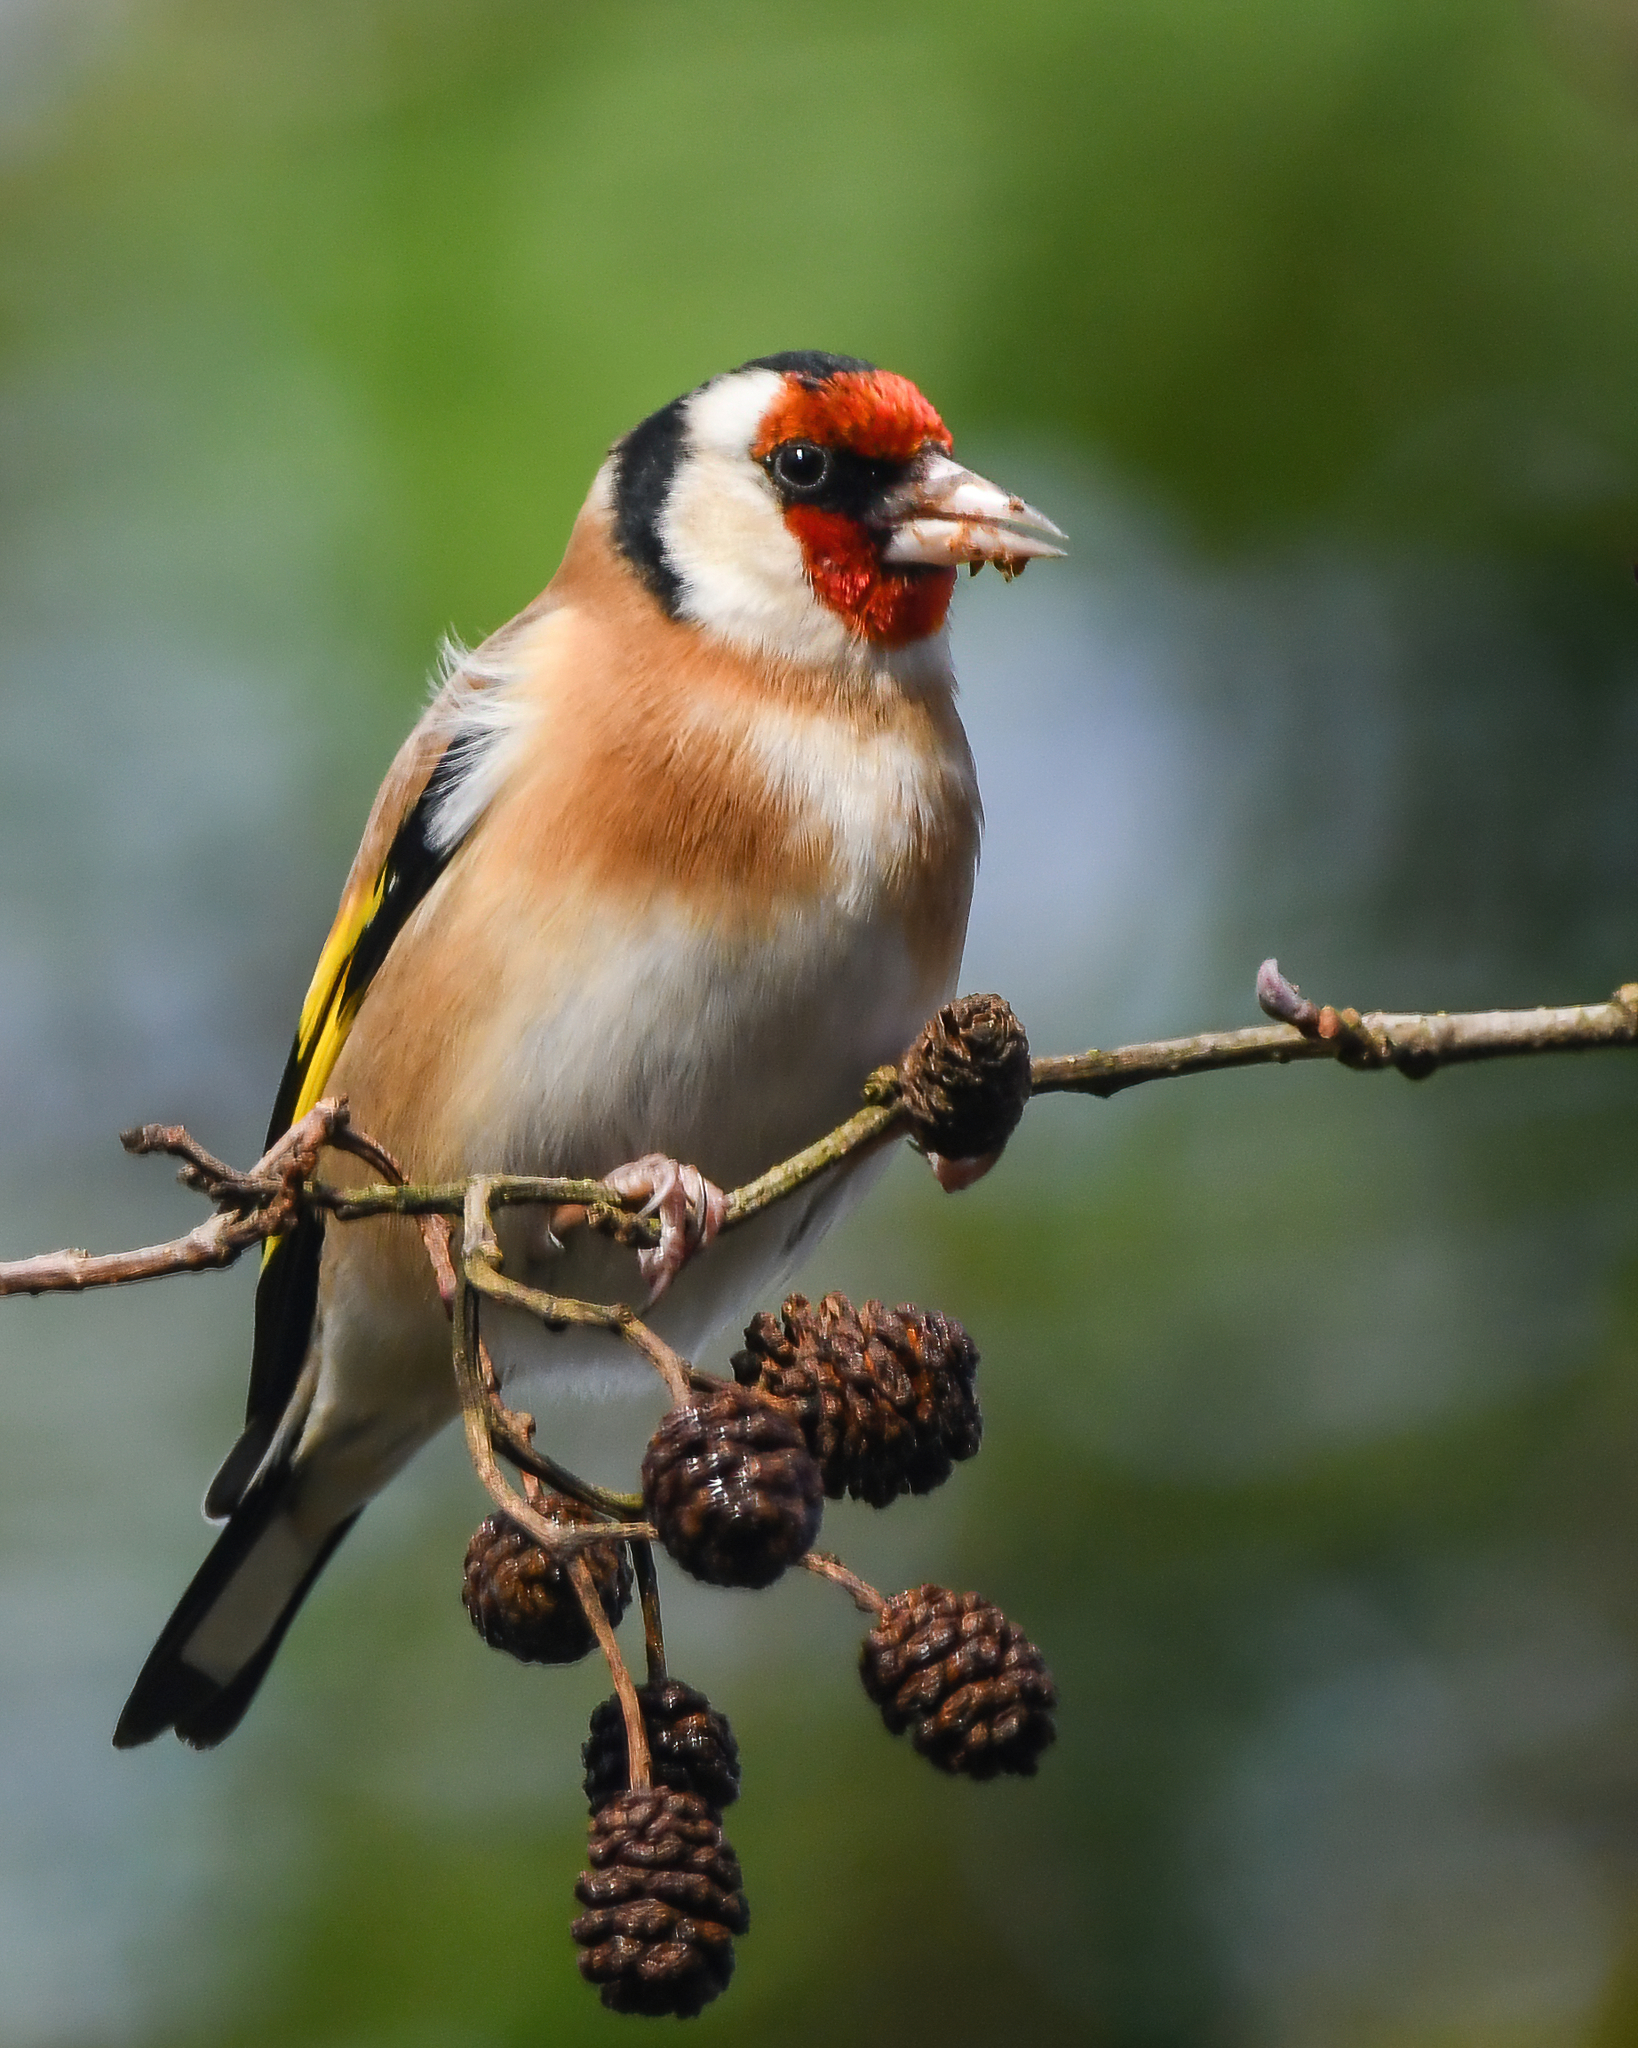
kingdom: Animalia
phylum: Chordata
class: Aves
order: Passeriformes
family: Fringillidae
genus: Carduelis
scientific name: Carduelis carduelis
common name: European goldfinch
